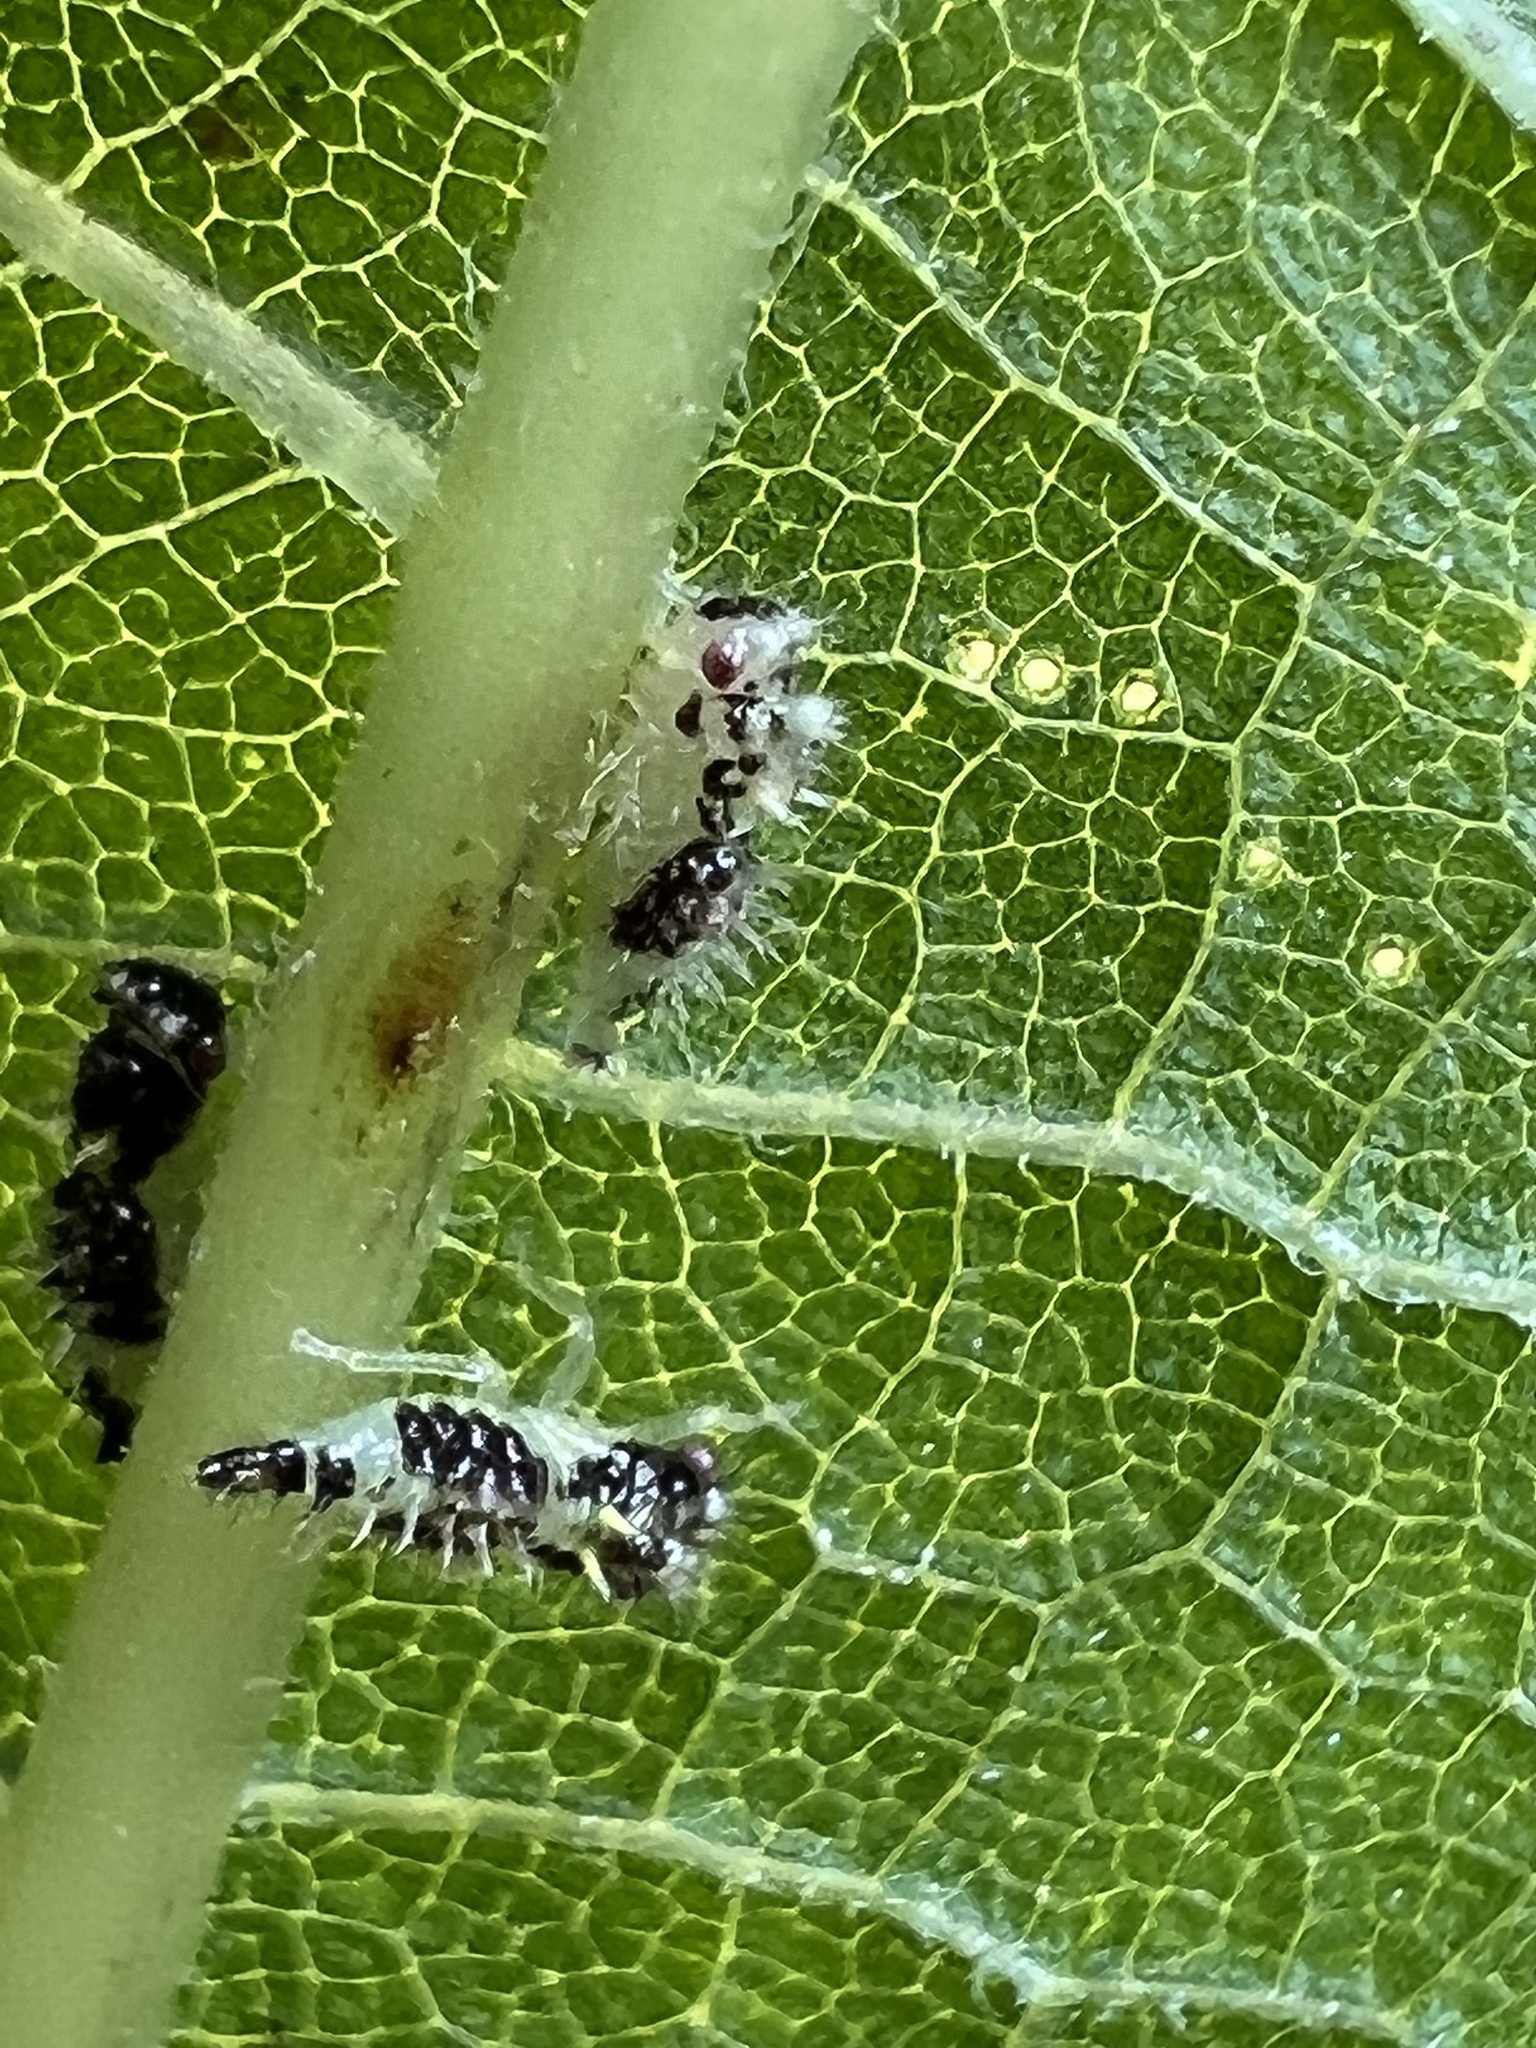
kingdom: Animalia
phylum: Arthropoda
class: Insecta
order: Hemiptera
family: Membracidae
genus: Entylia
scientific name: Entylia carinata
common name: Keeled treehopper
